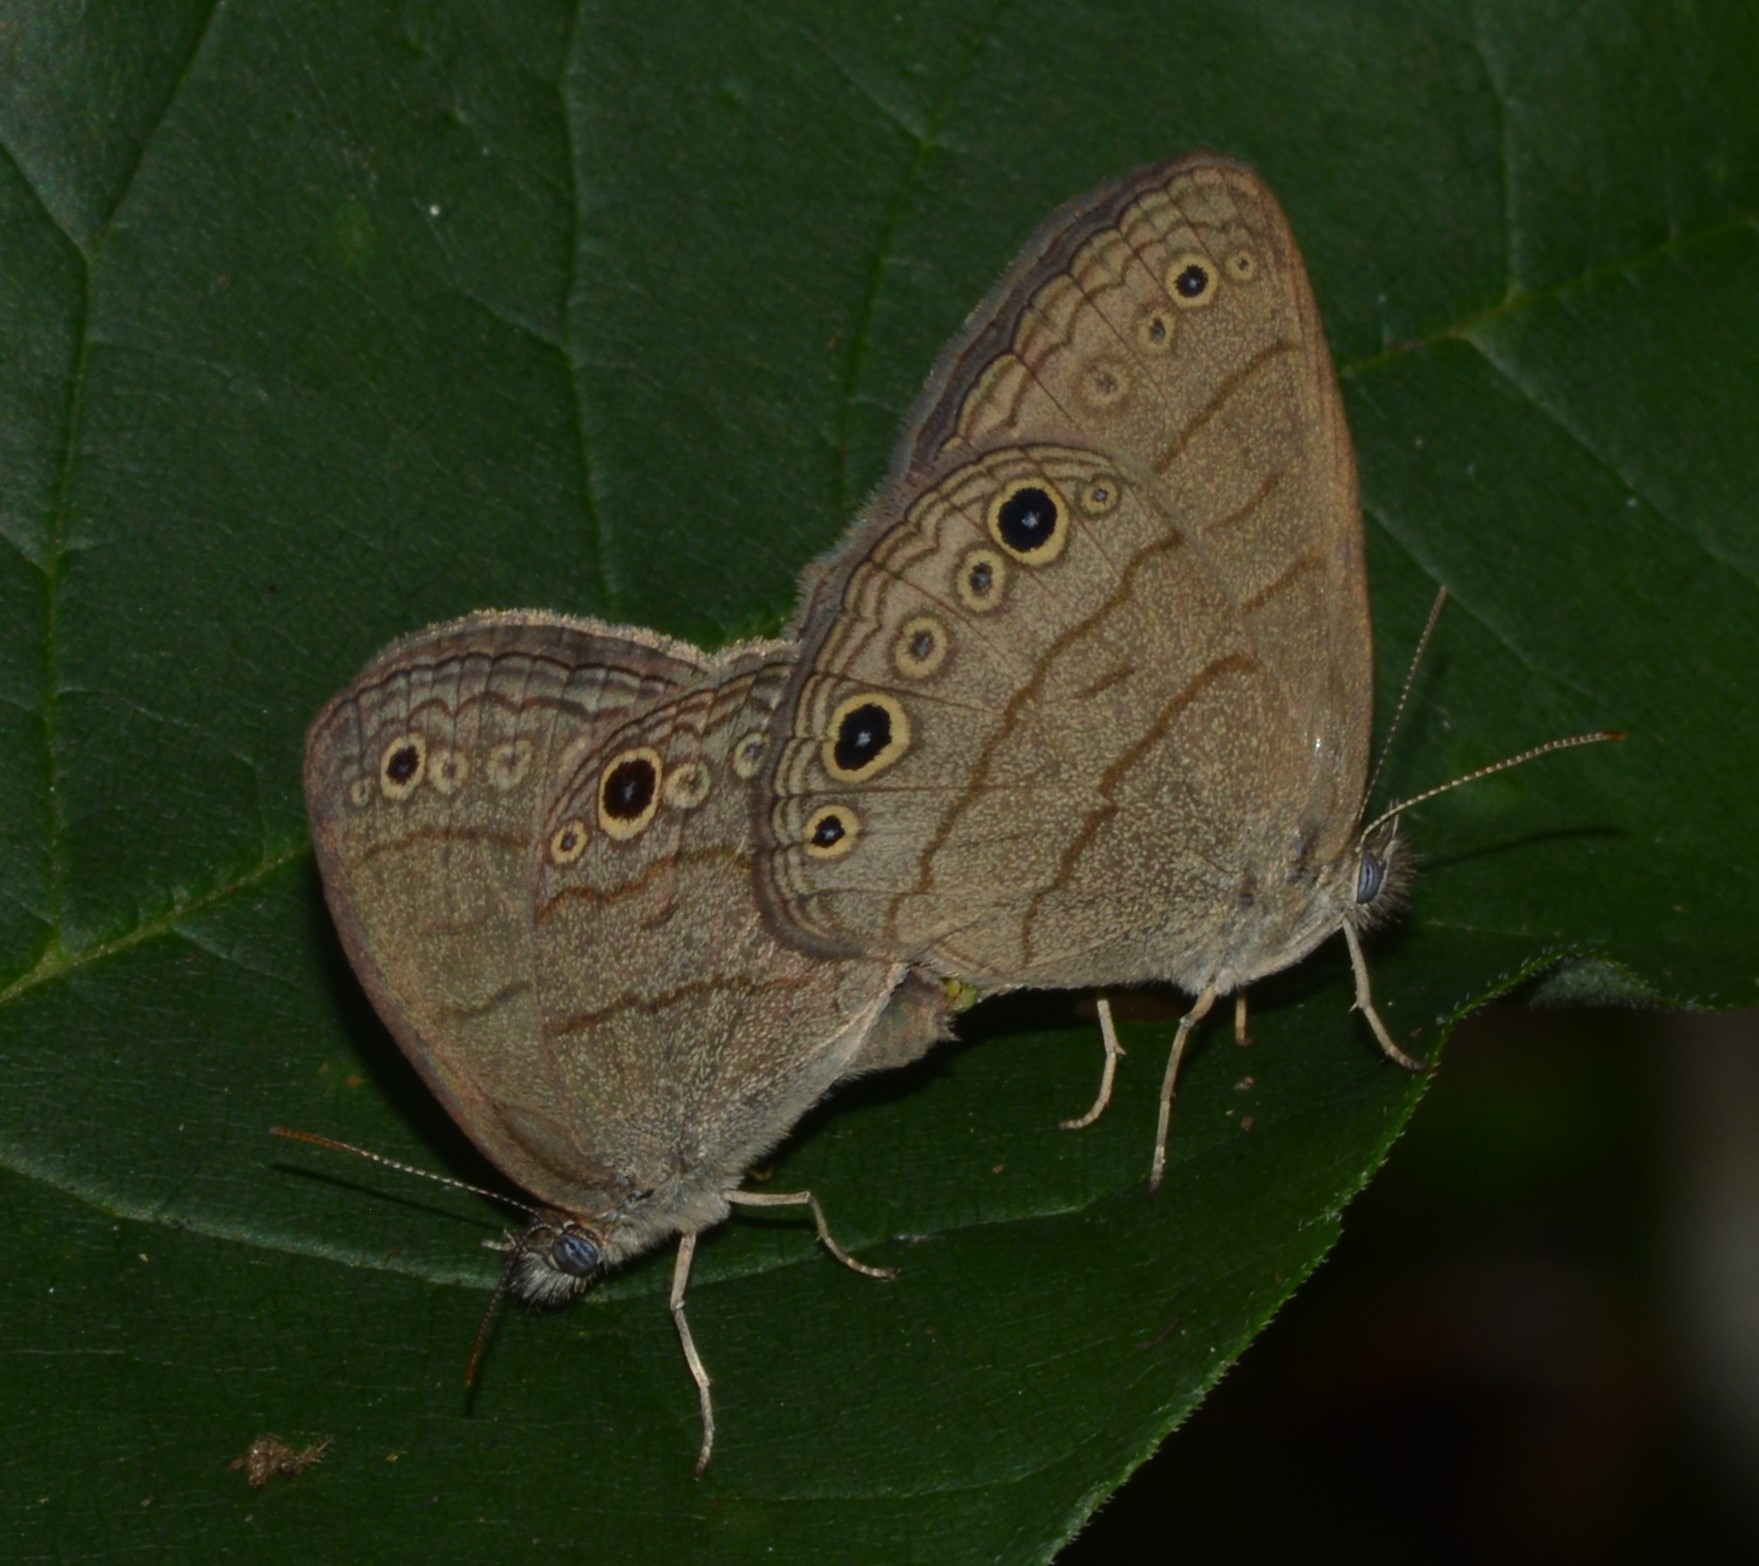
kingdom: Animalia
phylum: Arthropoda
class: Insecta
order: Lepidoptera
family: Nymphalidae
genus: Hermeuptychia
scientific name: Hermeuptychia hermes
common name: Hermes satyr
